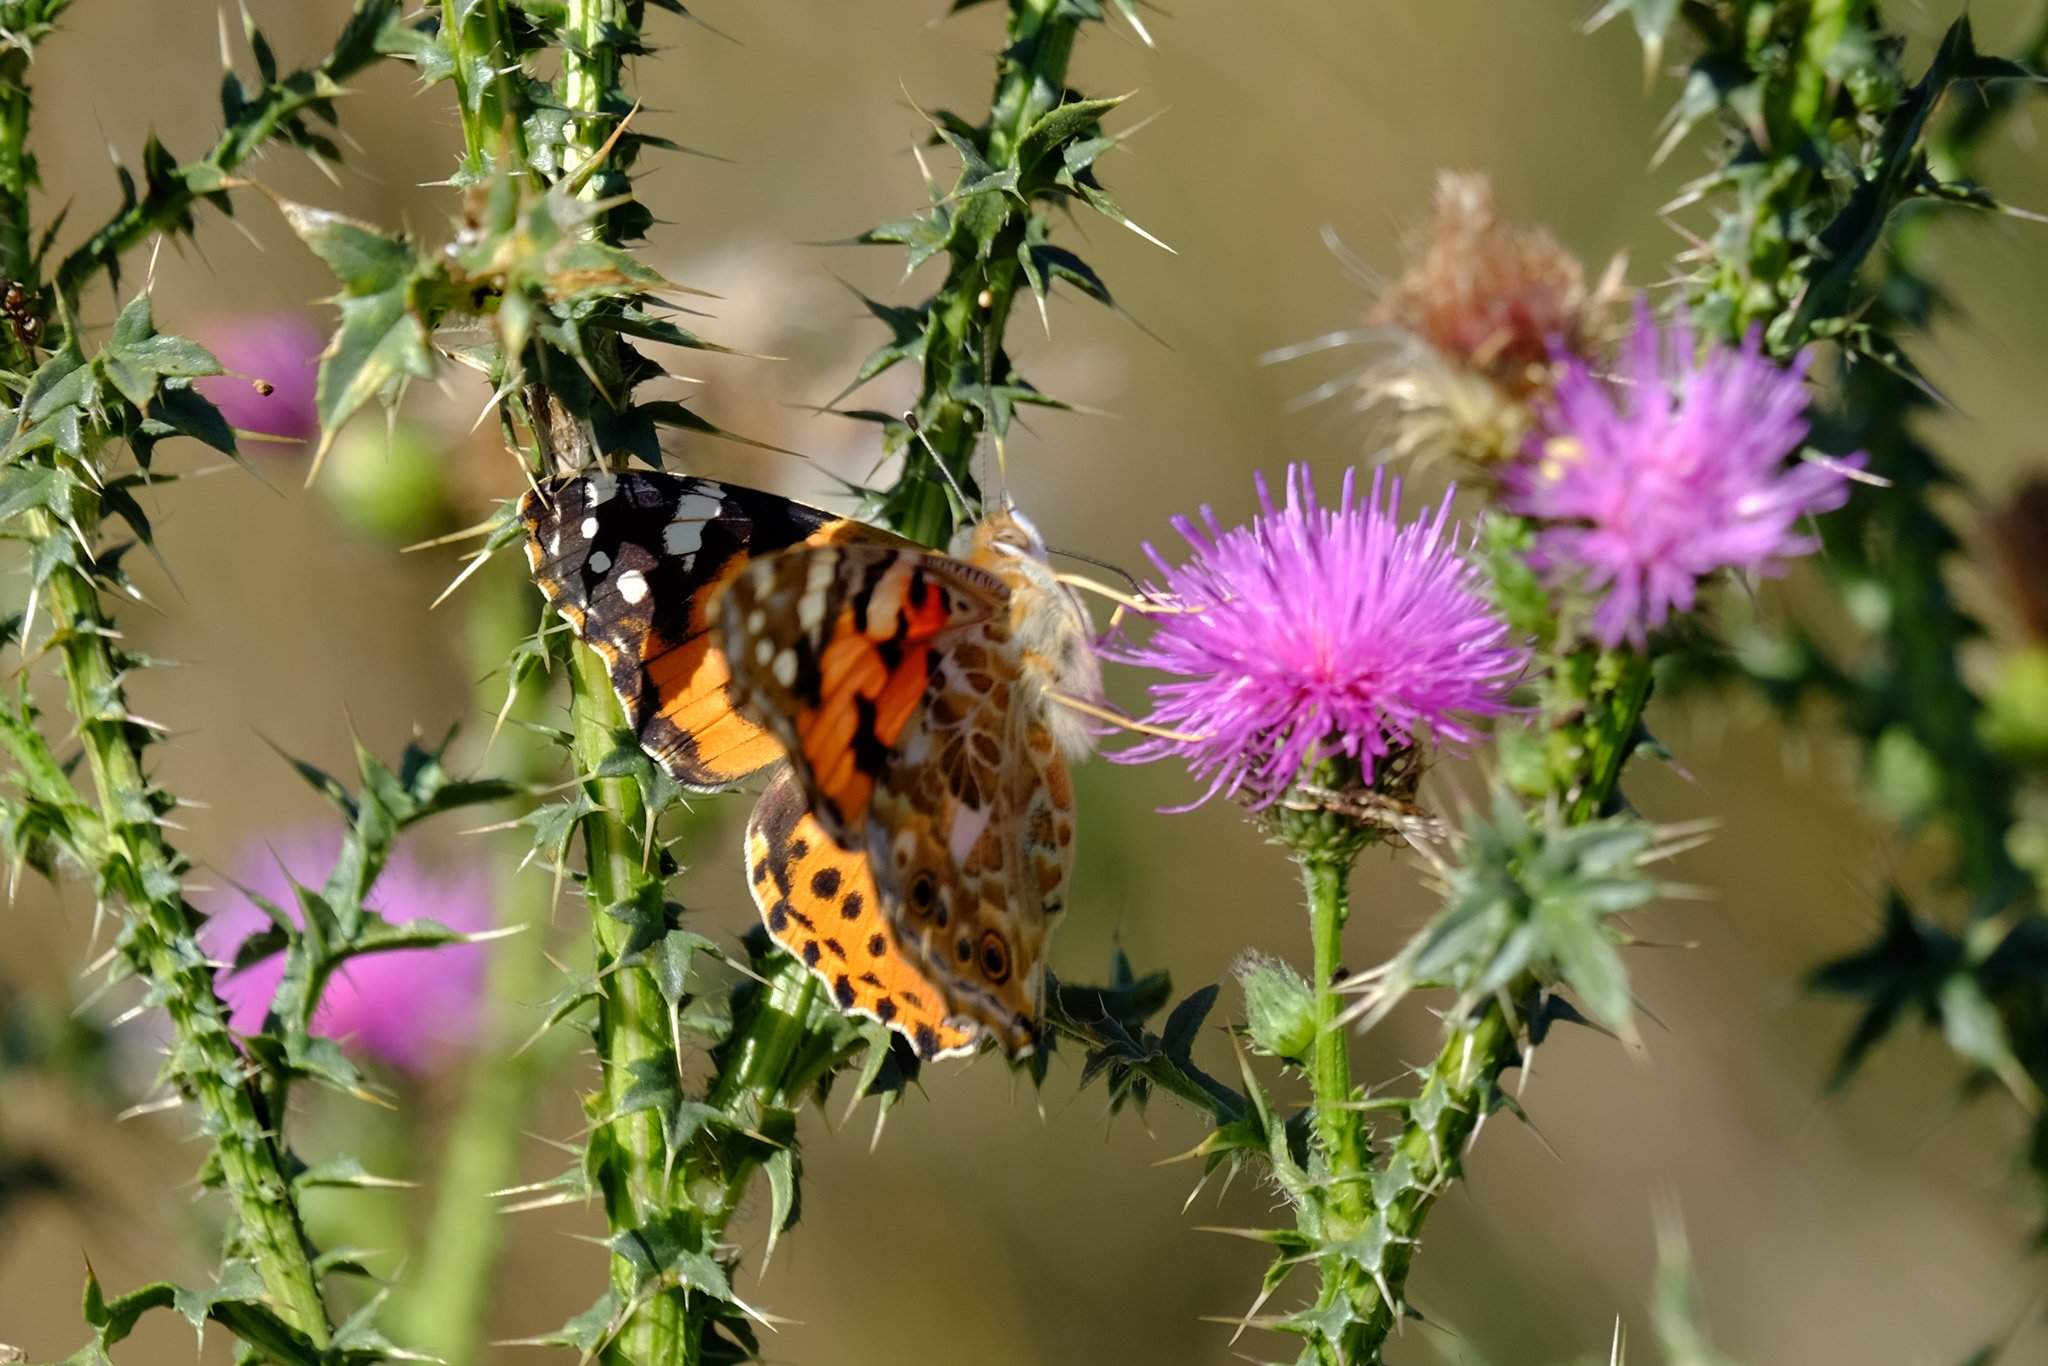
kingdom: Animalia
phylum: Arthropoda
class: Insecta
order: Lepidoptera
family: Nymphalidae
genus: Vanessa
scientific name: Vanessa cardui
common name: Painted lady
